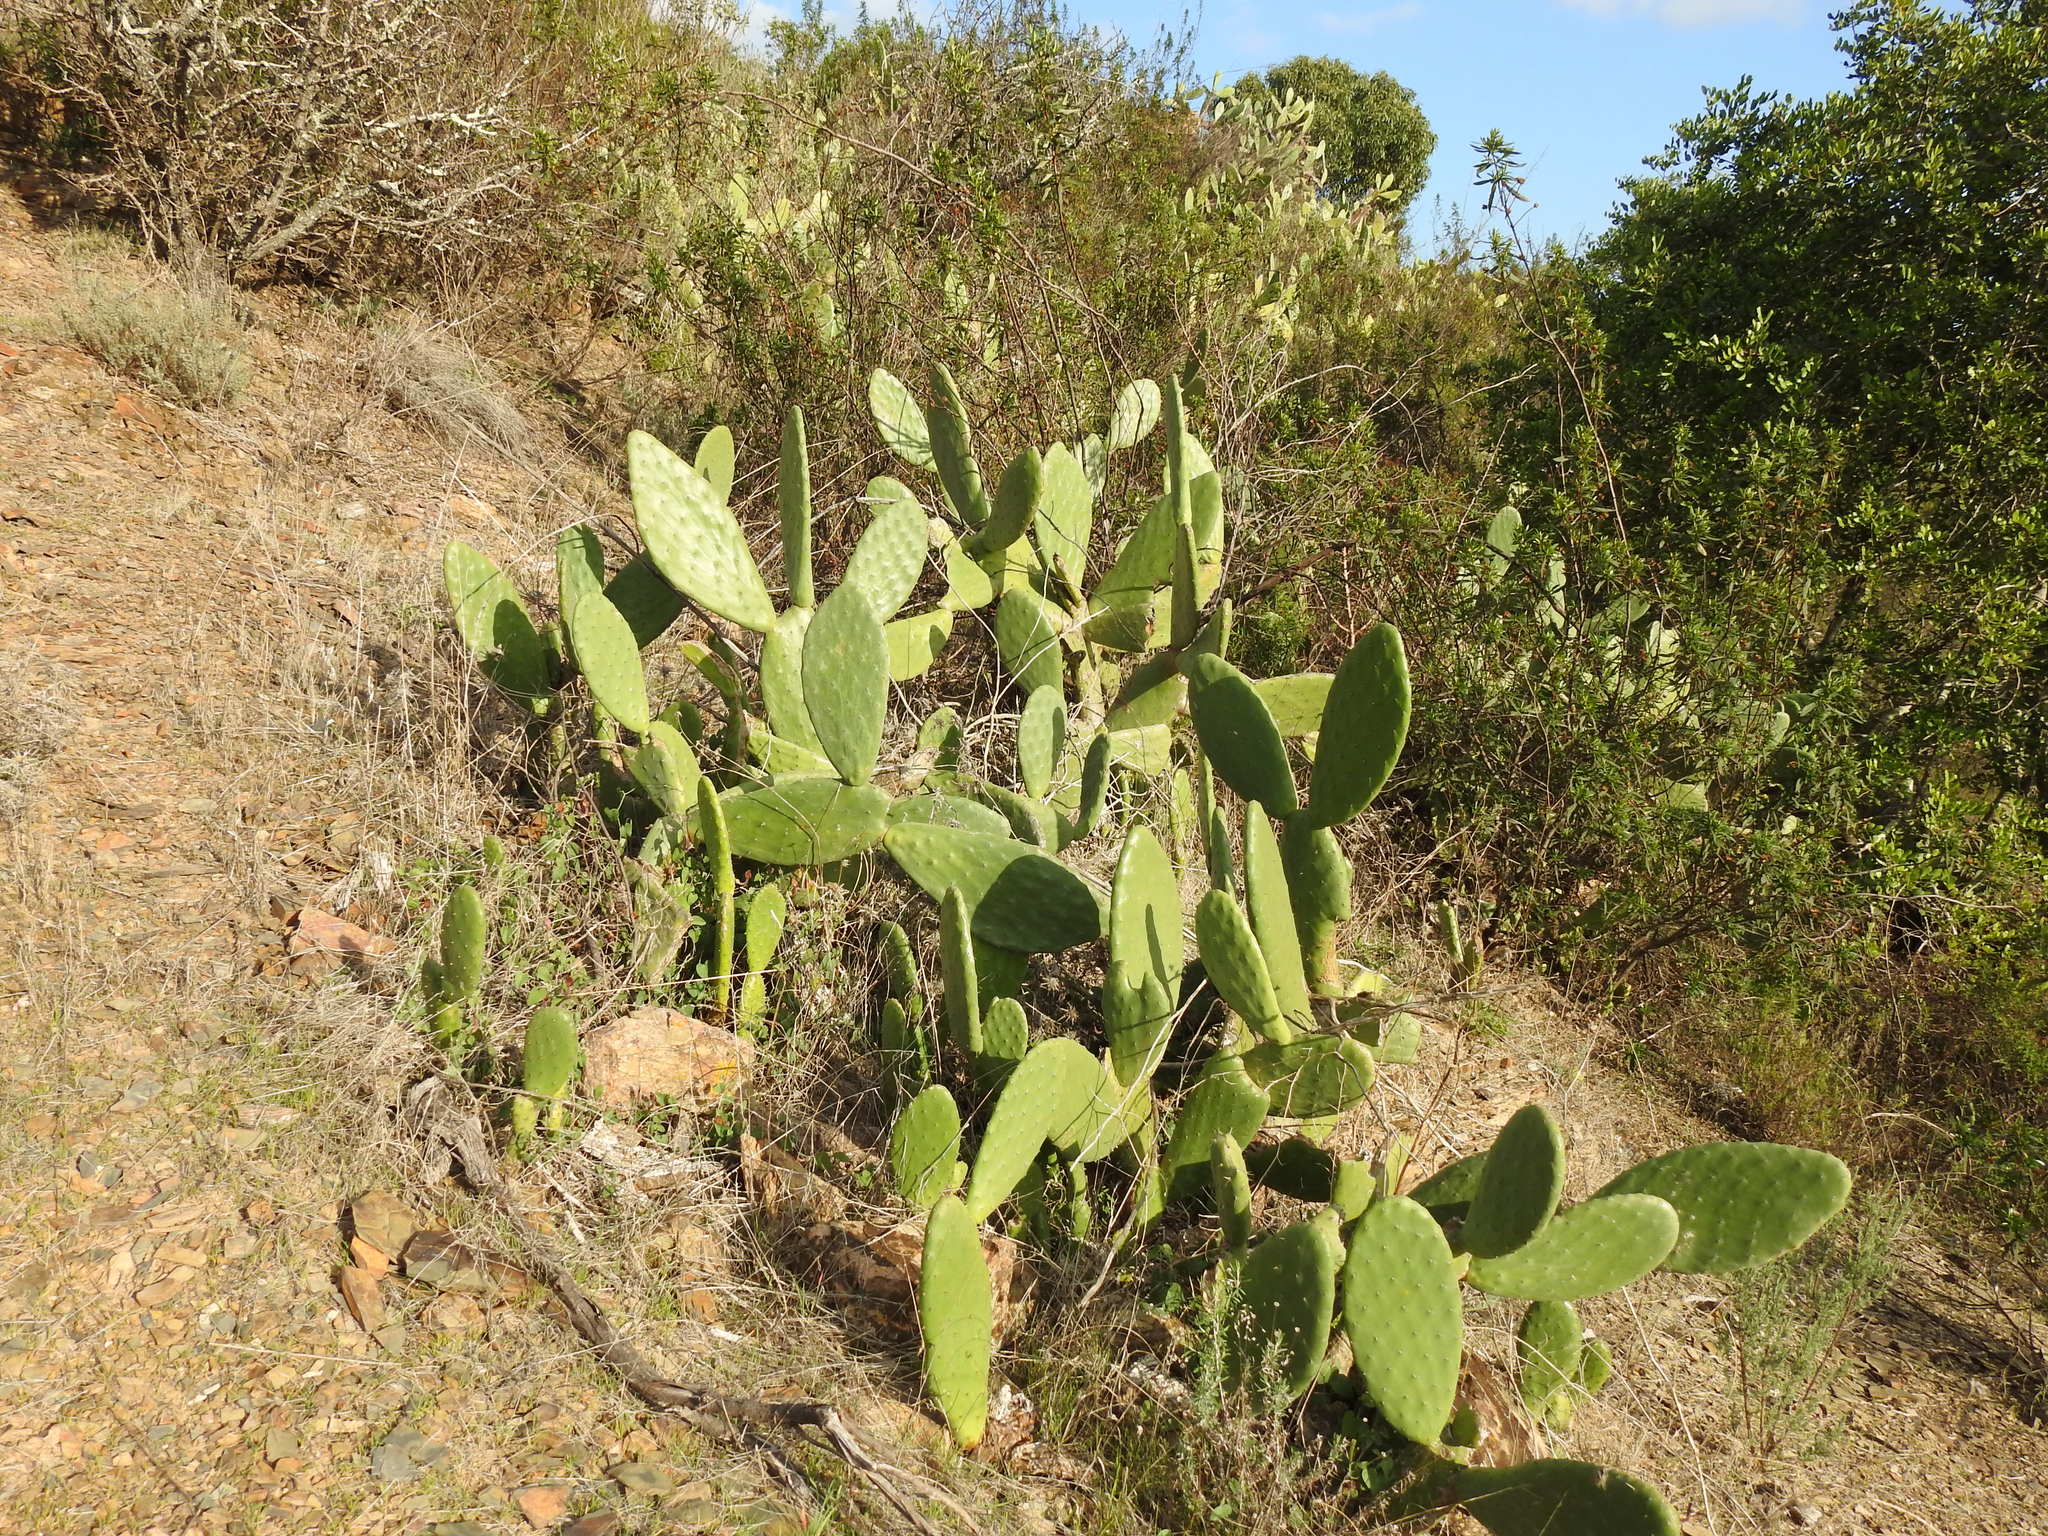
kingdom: Plantae
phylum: Tracheophyta
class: Magnoliopsida
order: Caryophyllales
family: Cactaceae
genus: Opuntia
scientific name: Opuntia ficus-indica
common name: Barbary fig
